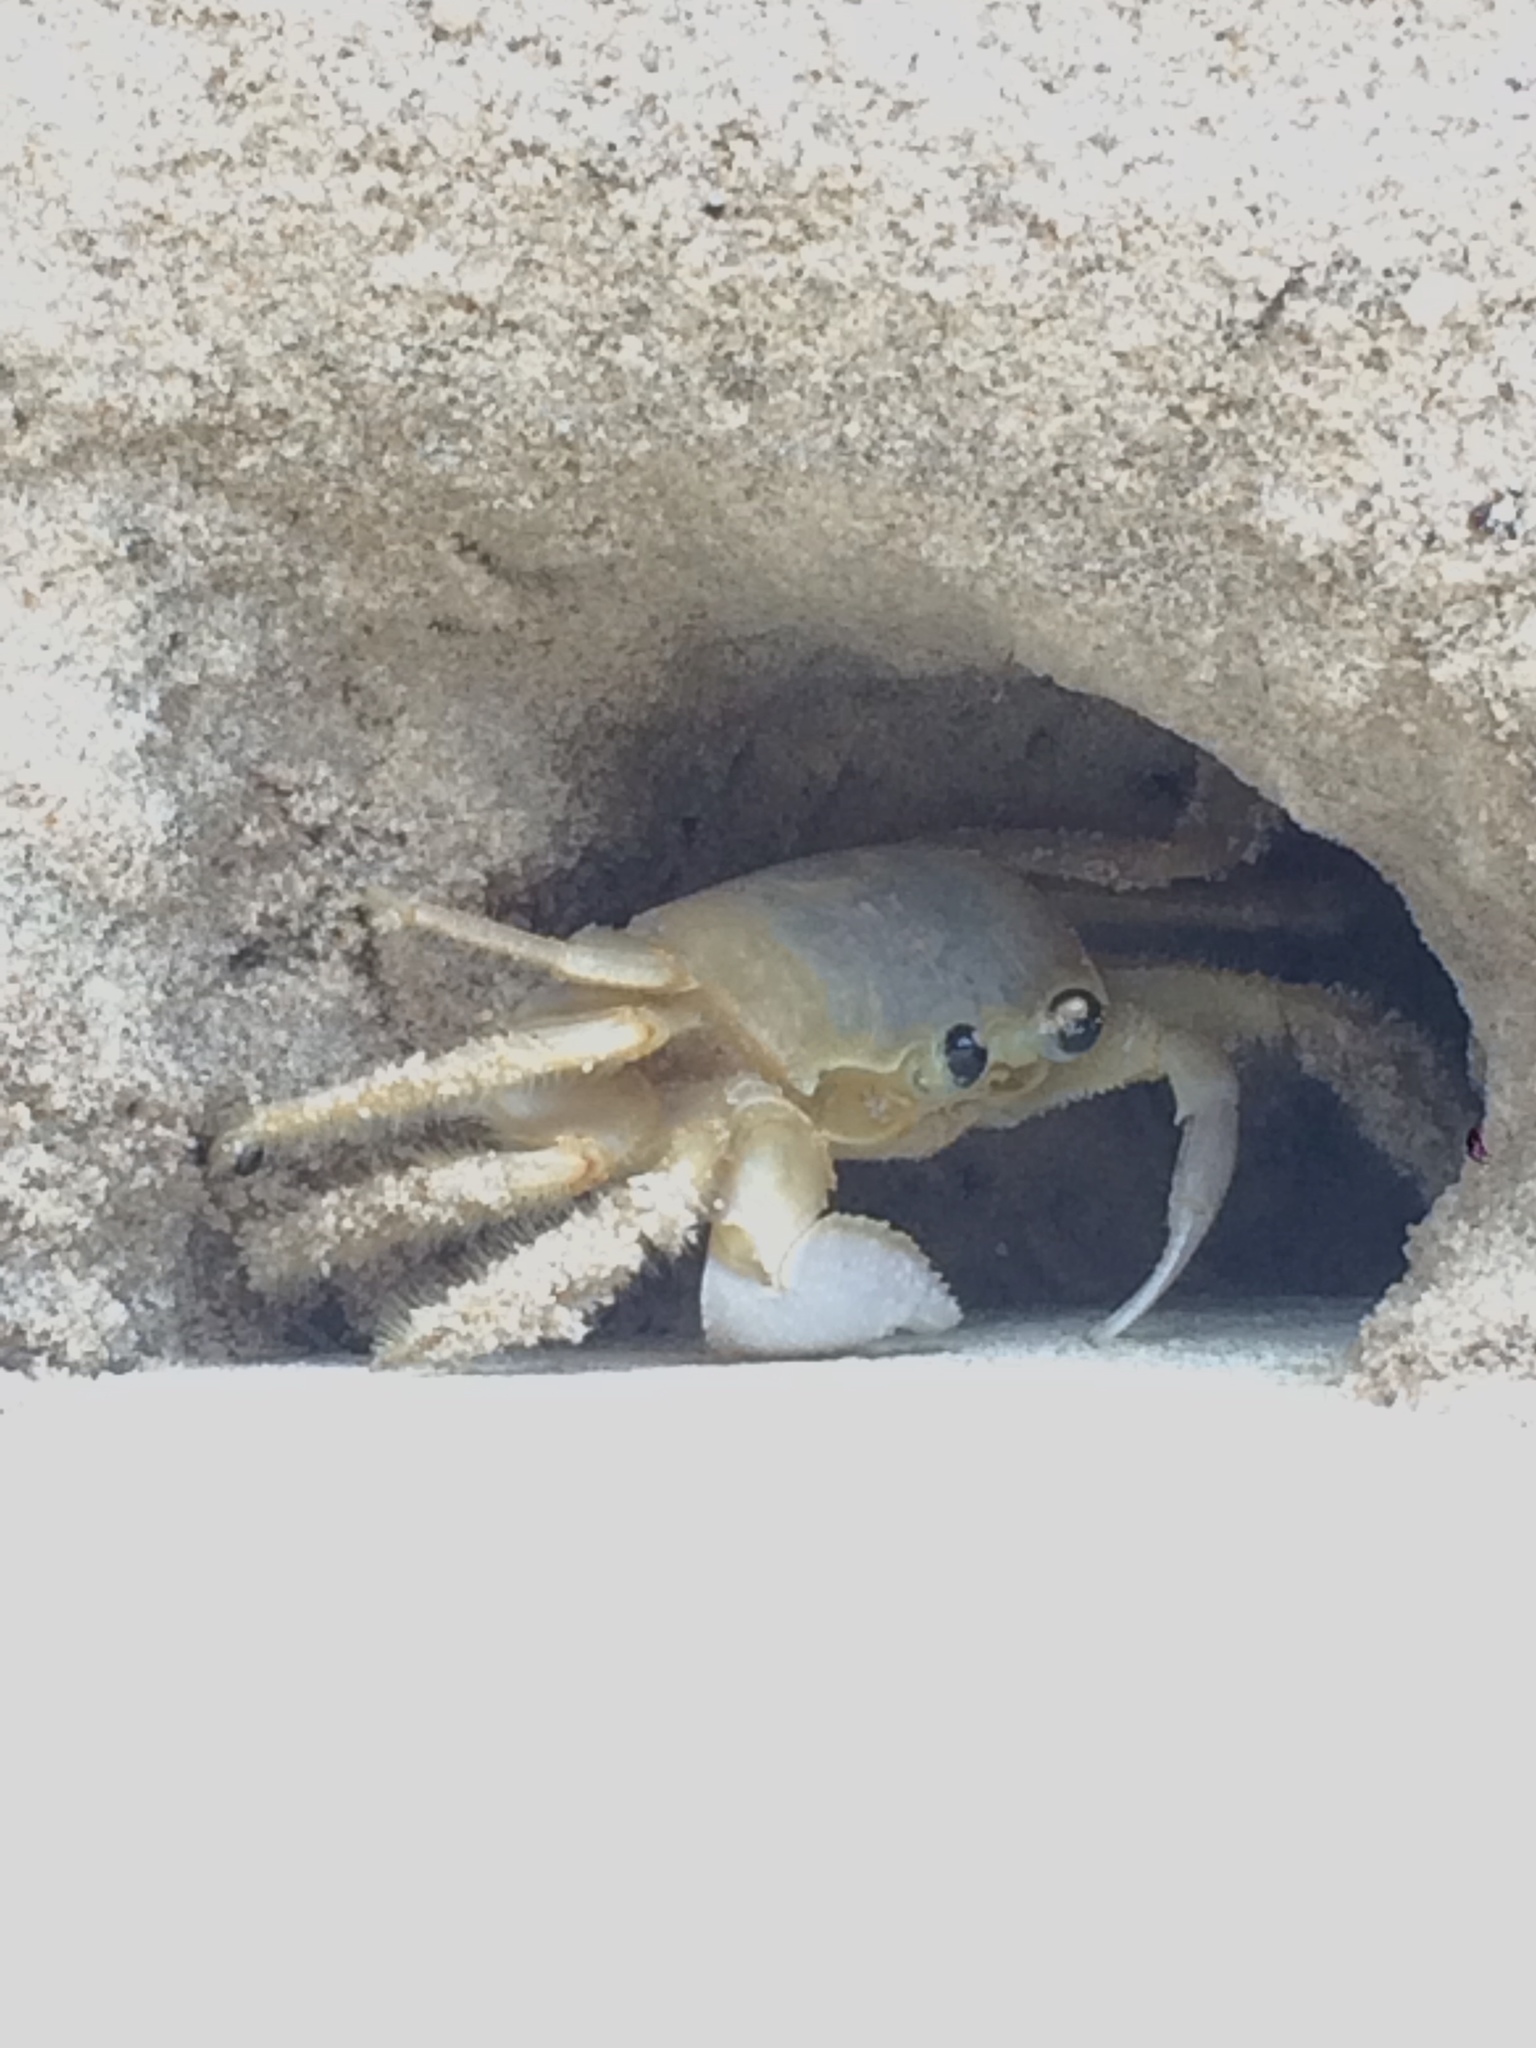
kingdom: Animalia
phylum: Arthropoda
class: Malacostraca
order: Decapoda
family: Ocypodidae
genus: Ocypode
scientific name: Ocypode quadrata
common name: Ghost crab
